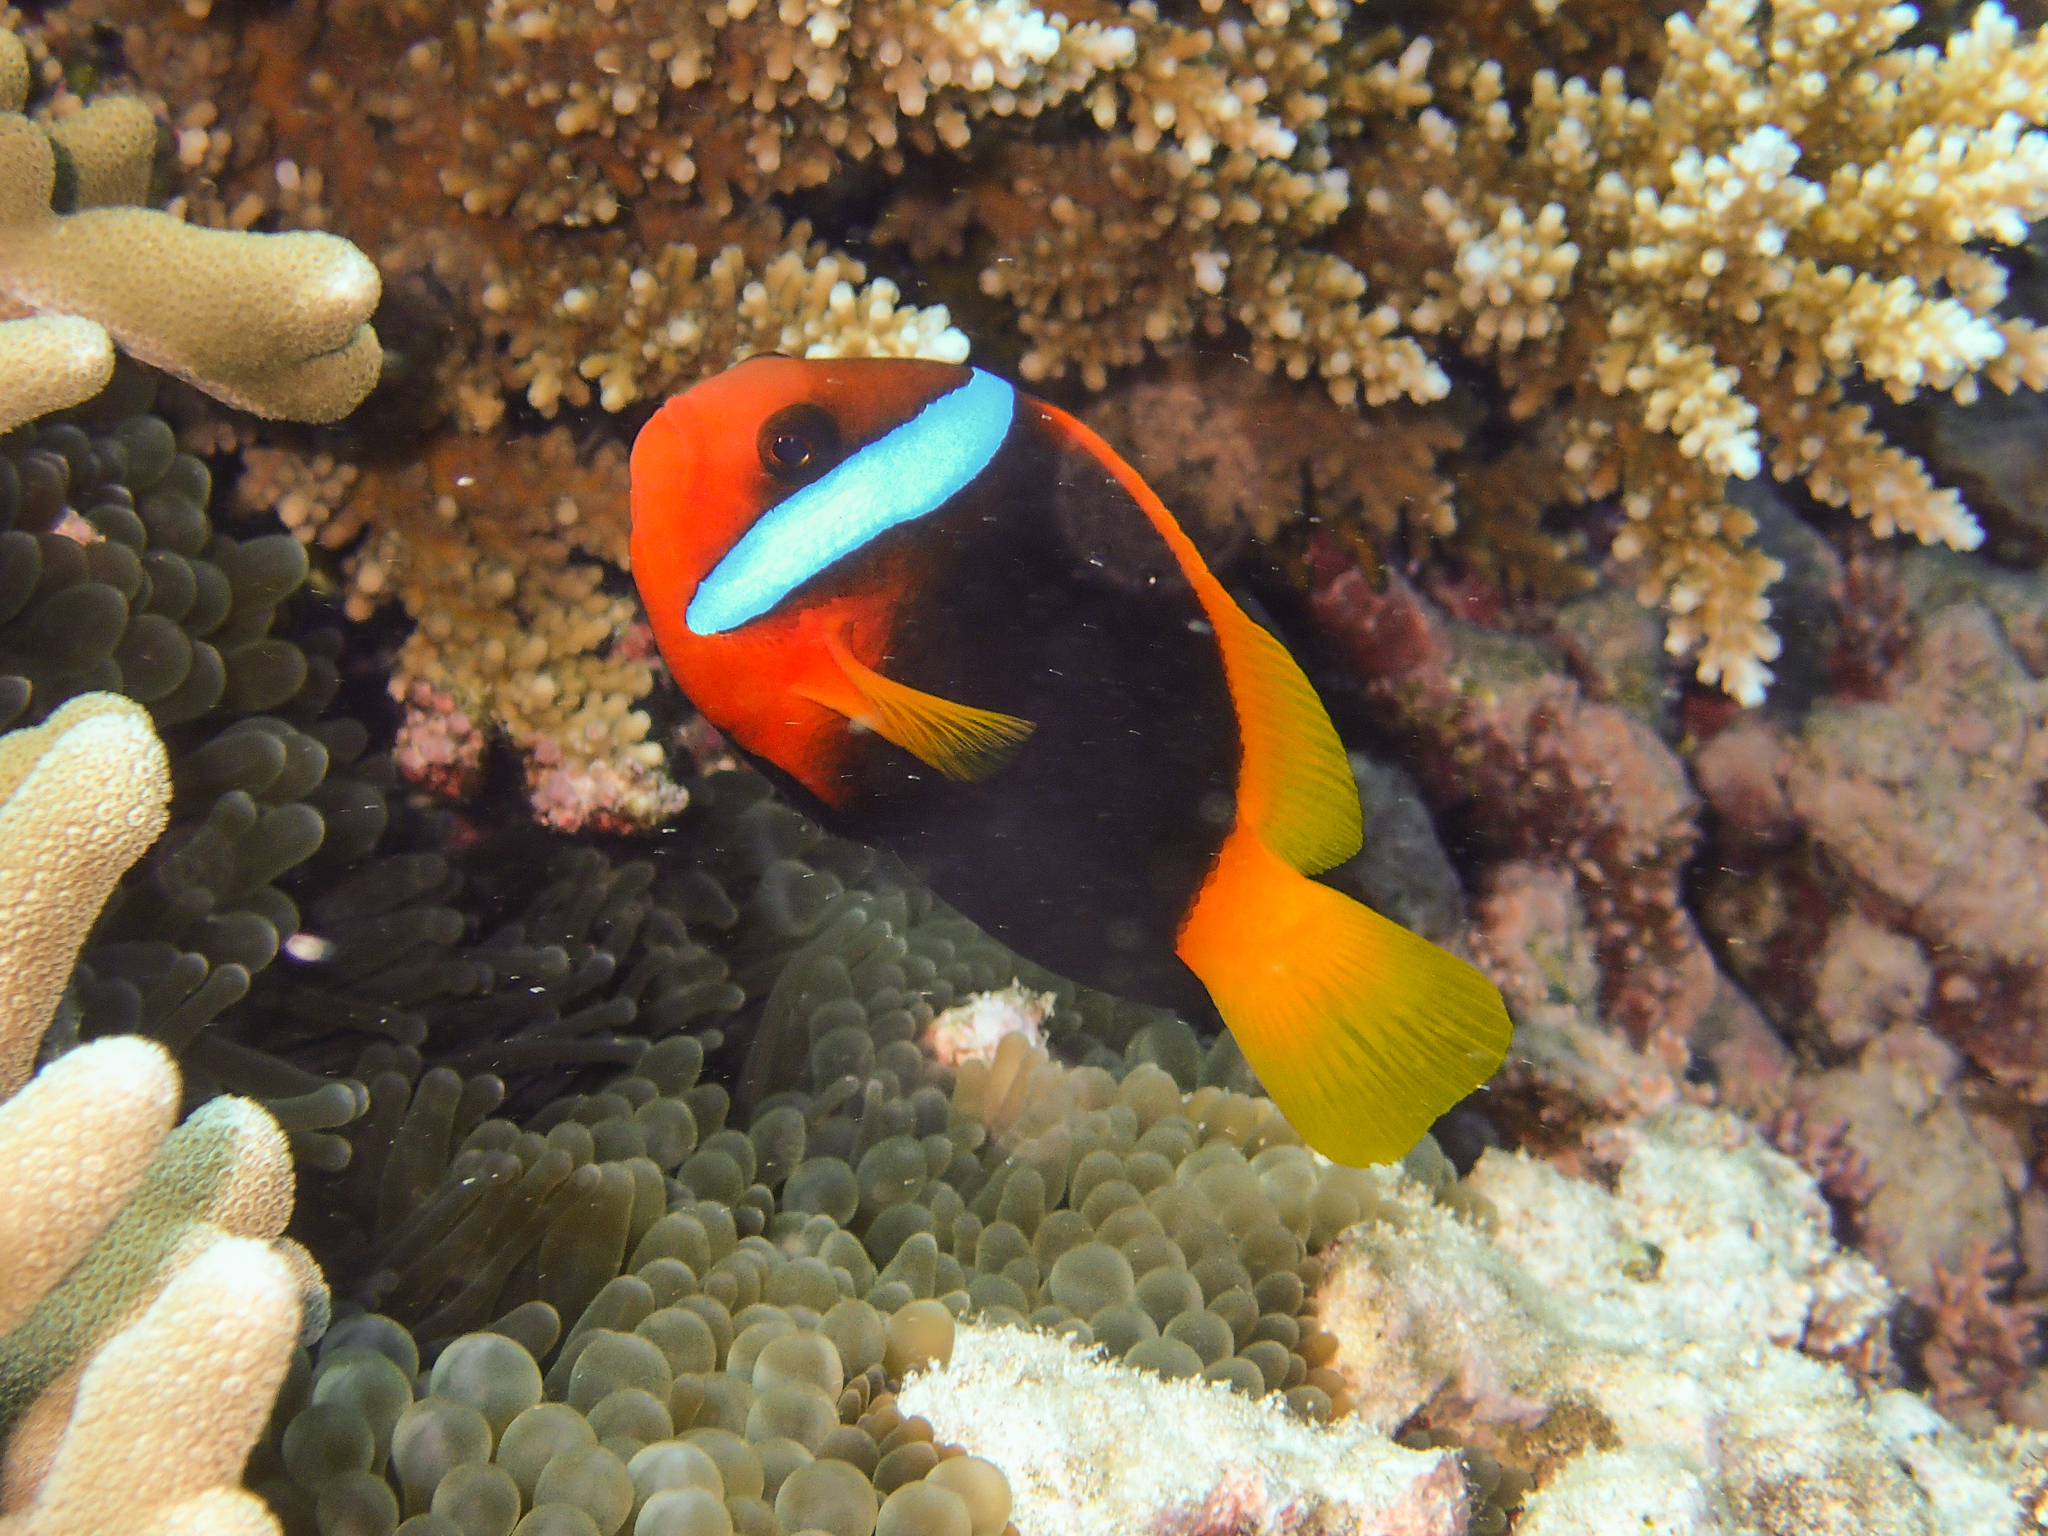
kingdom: Animalia
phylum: Chordata
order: Perciformes
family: Pomacentridae
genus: Amphiprion
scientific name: Amphiprion melanopus
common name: Black anemonefish
